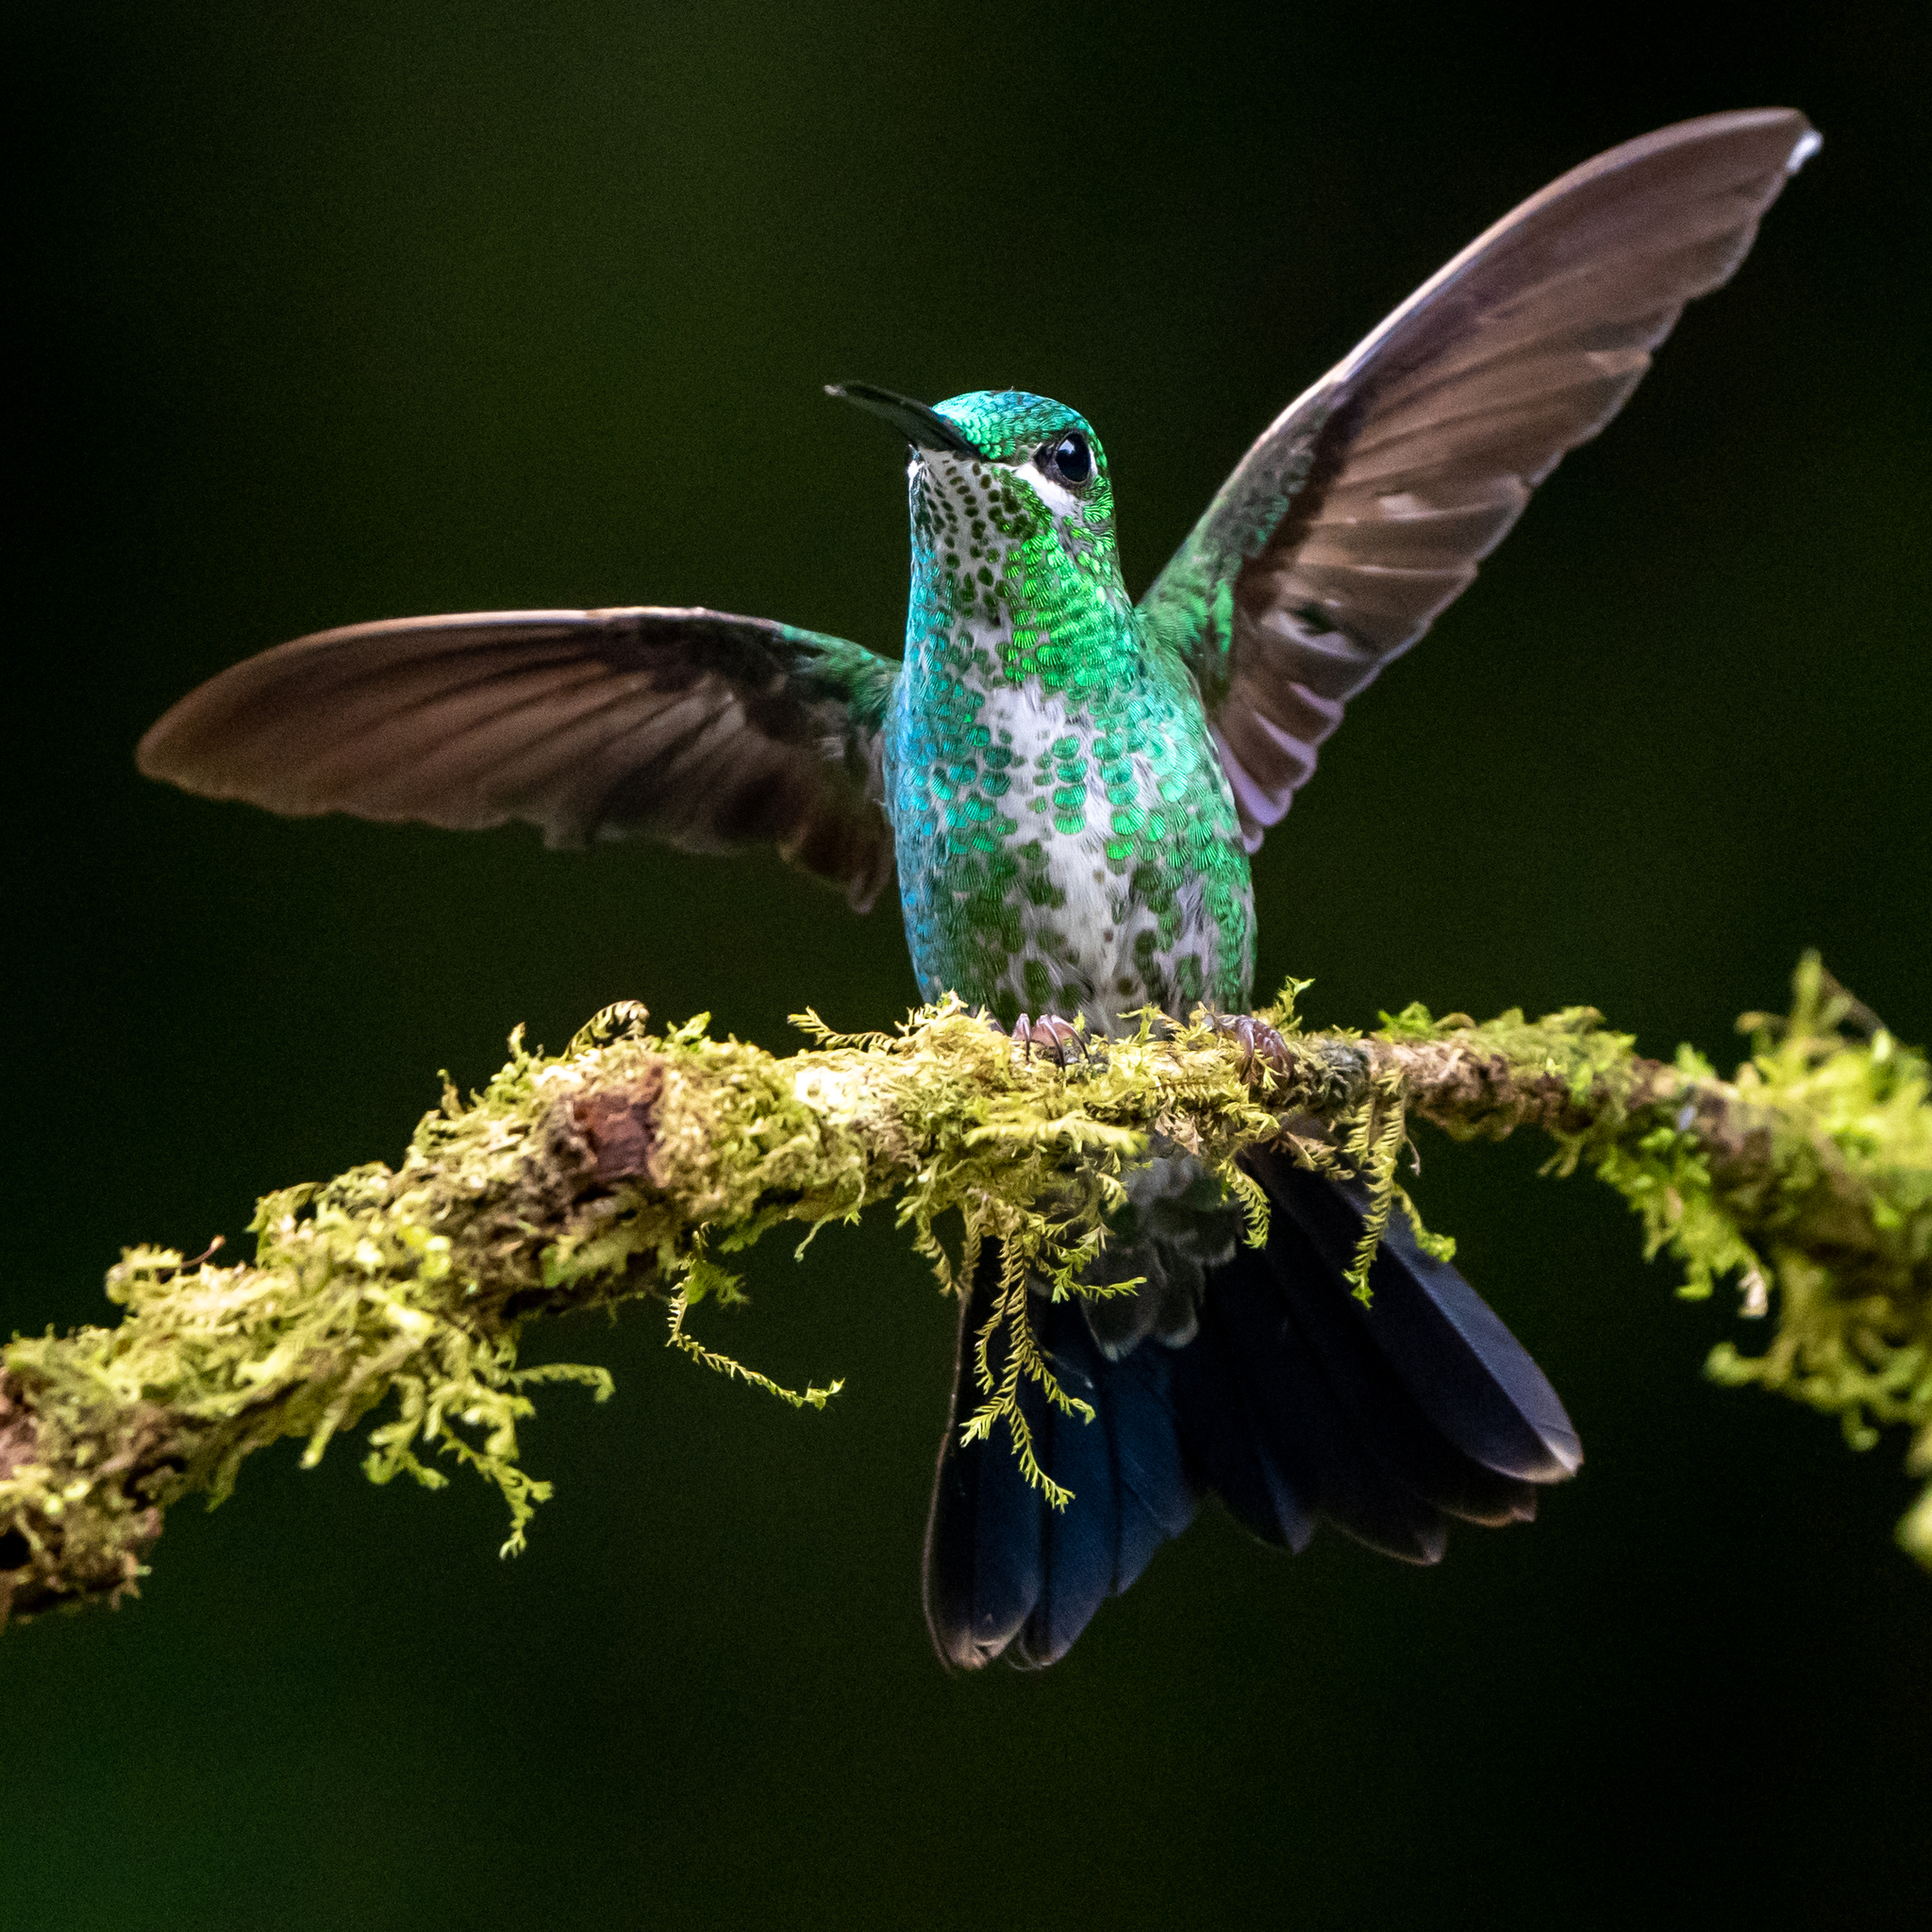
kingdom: Animalia
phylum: Chordata
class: Aves
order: Apodiformes
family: Trochilidae
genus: Heliodoxa
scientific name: Heliodoxa jacula
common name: Green-crowned brilliant
